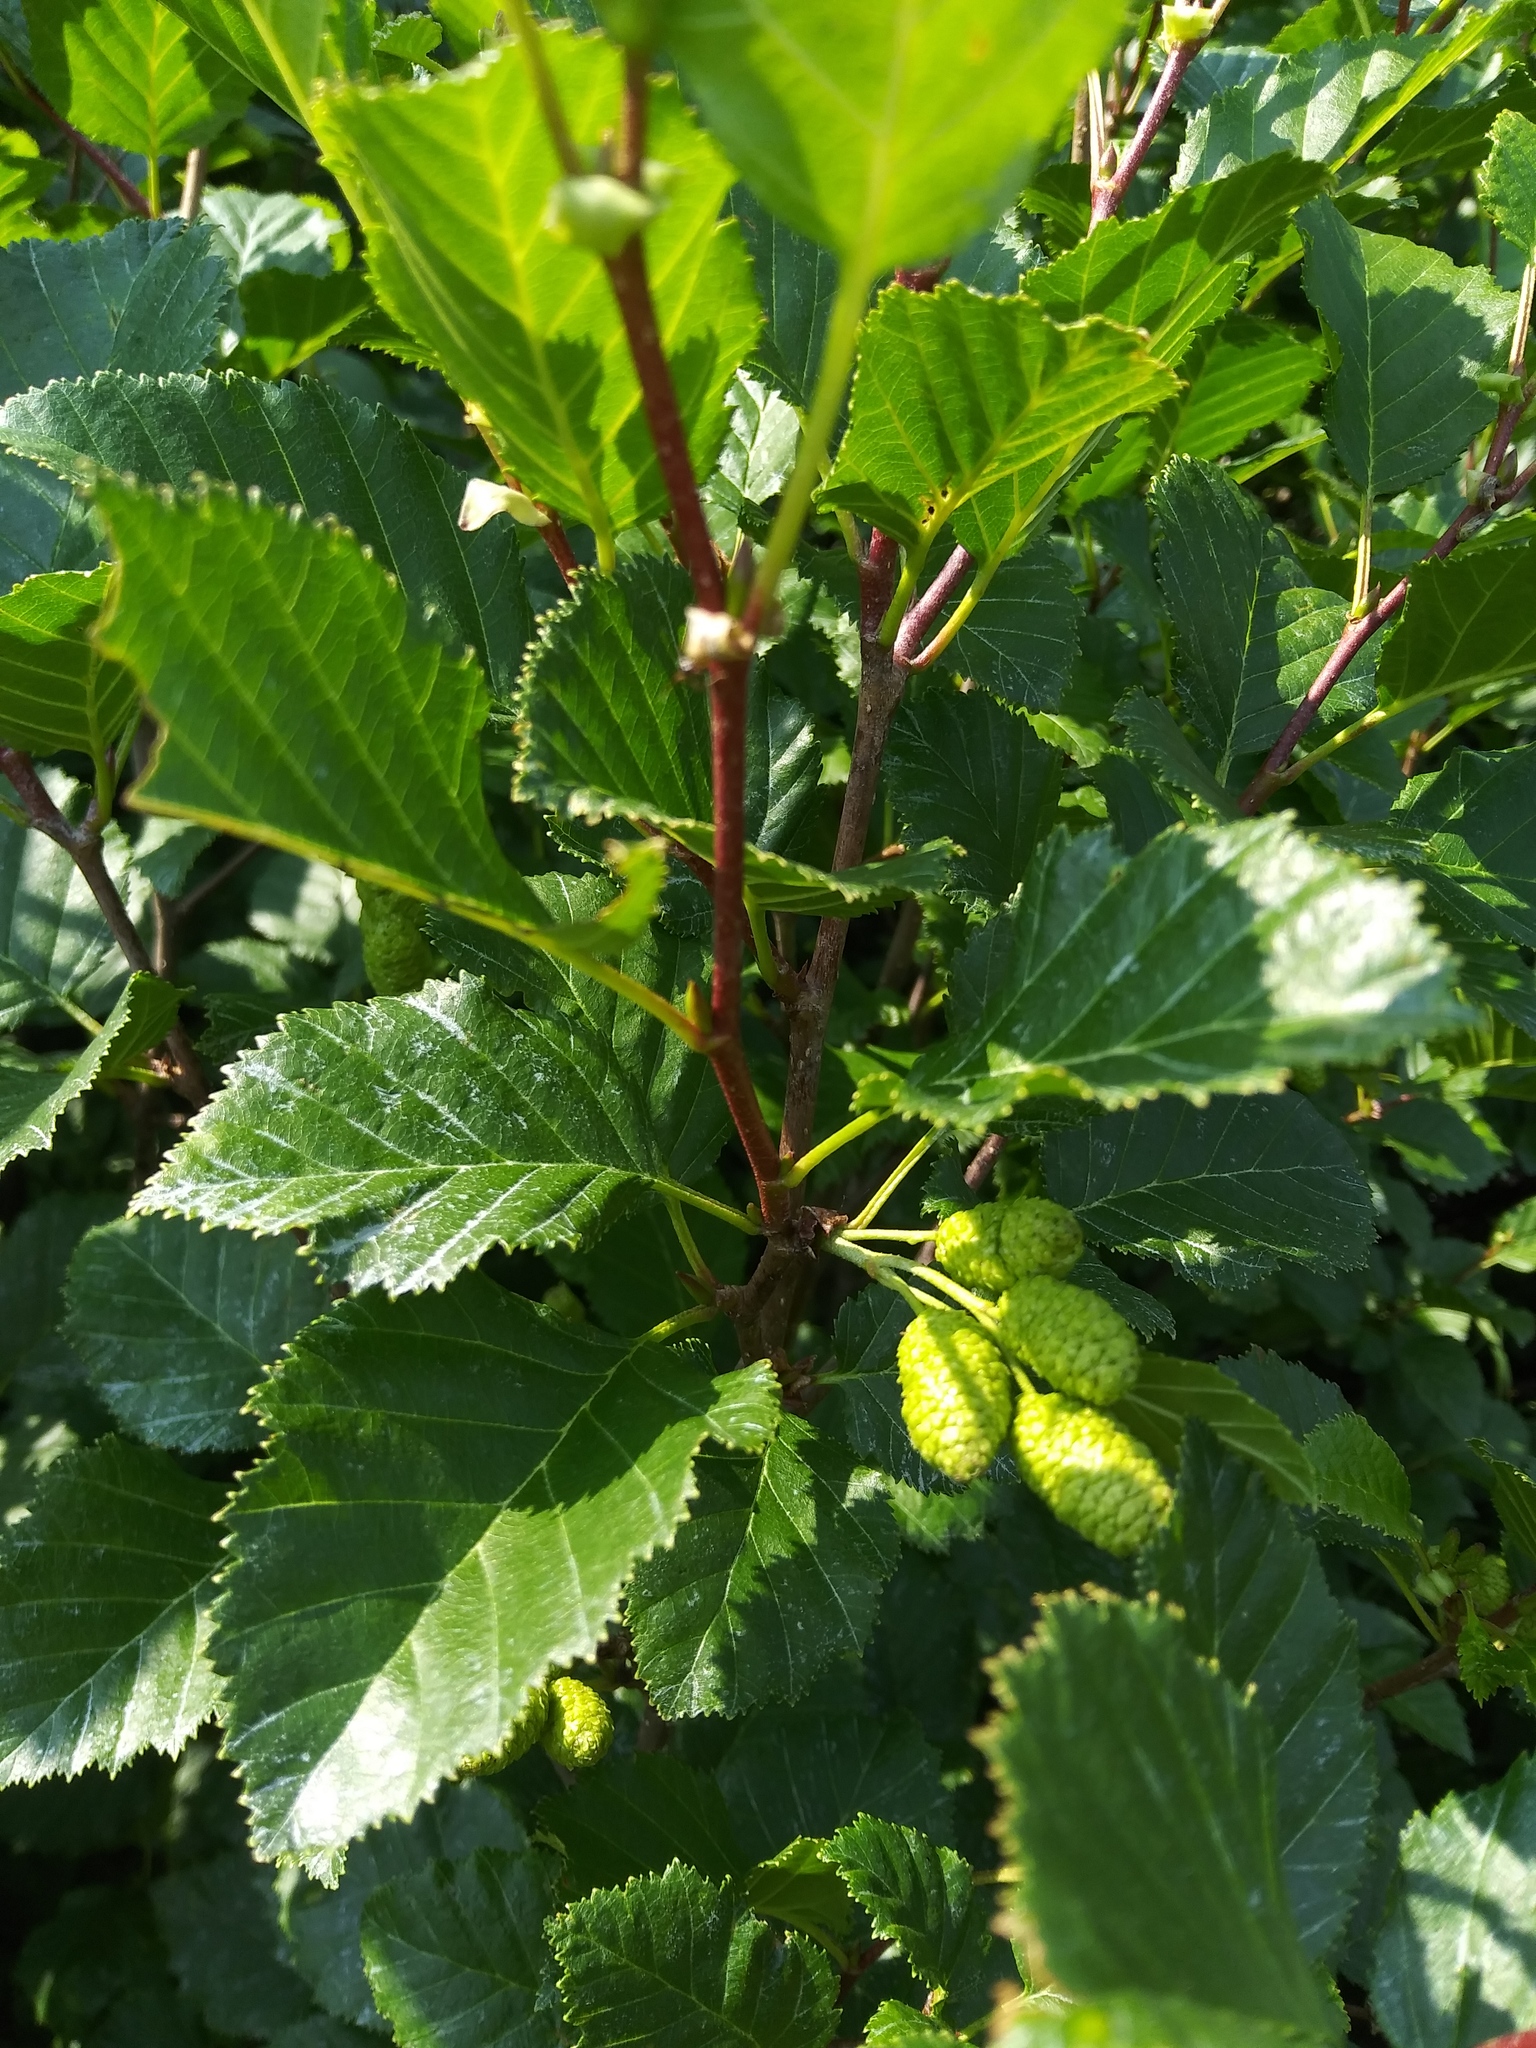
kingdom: Plantae
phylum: Tracheophyta
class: Magnoliopsida
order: Fagales
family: Betulaceae
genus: Alnus
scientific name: Alnus alnobetula
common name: Green alder
